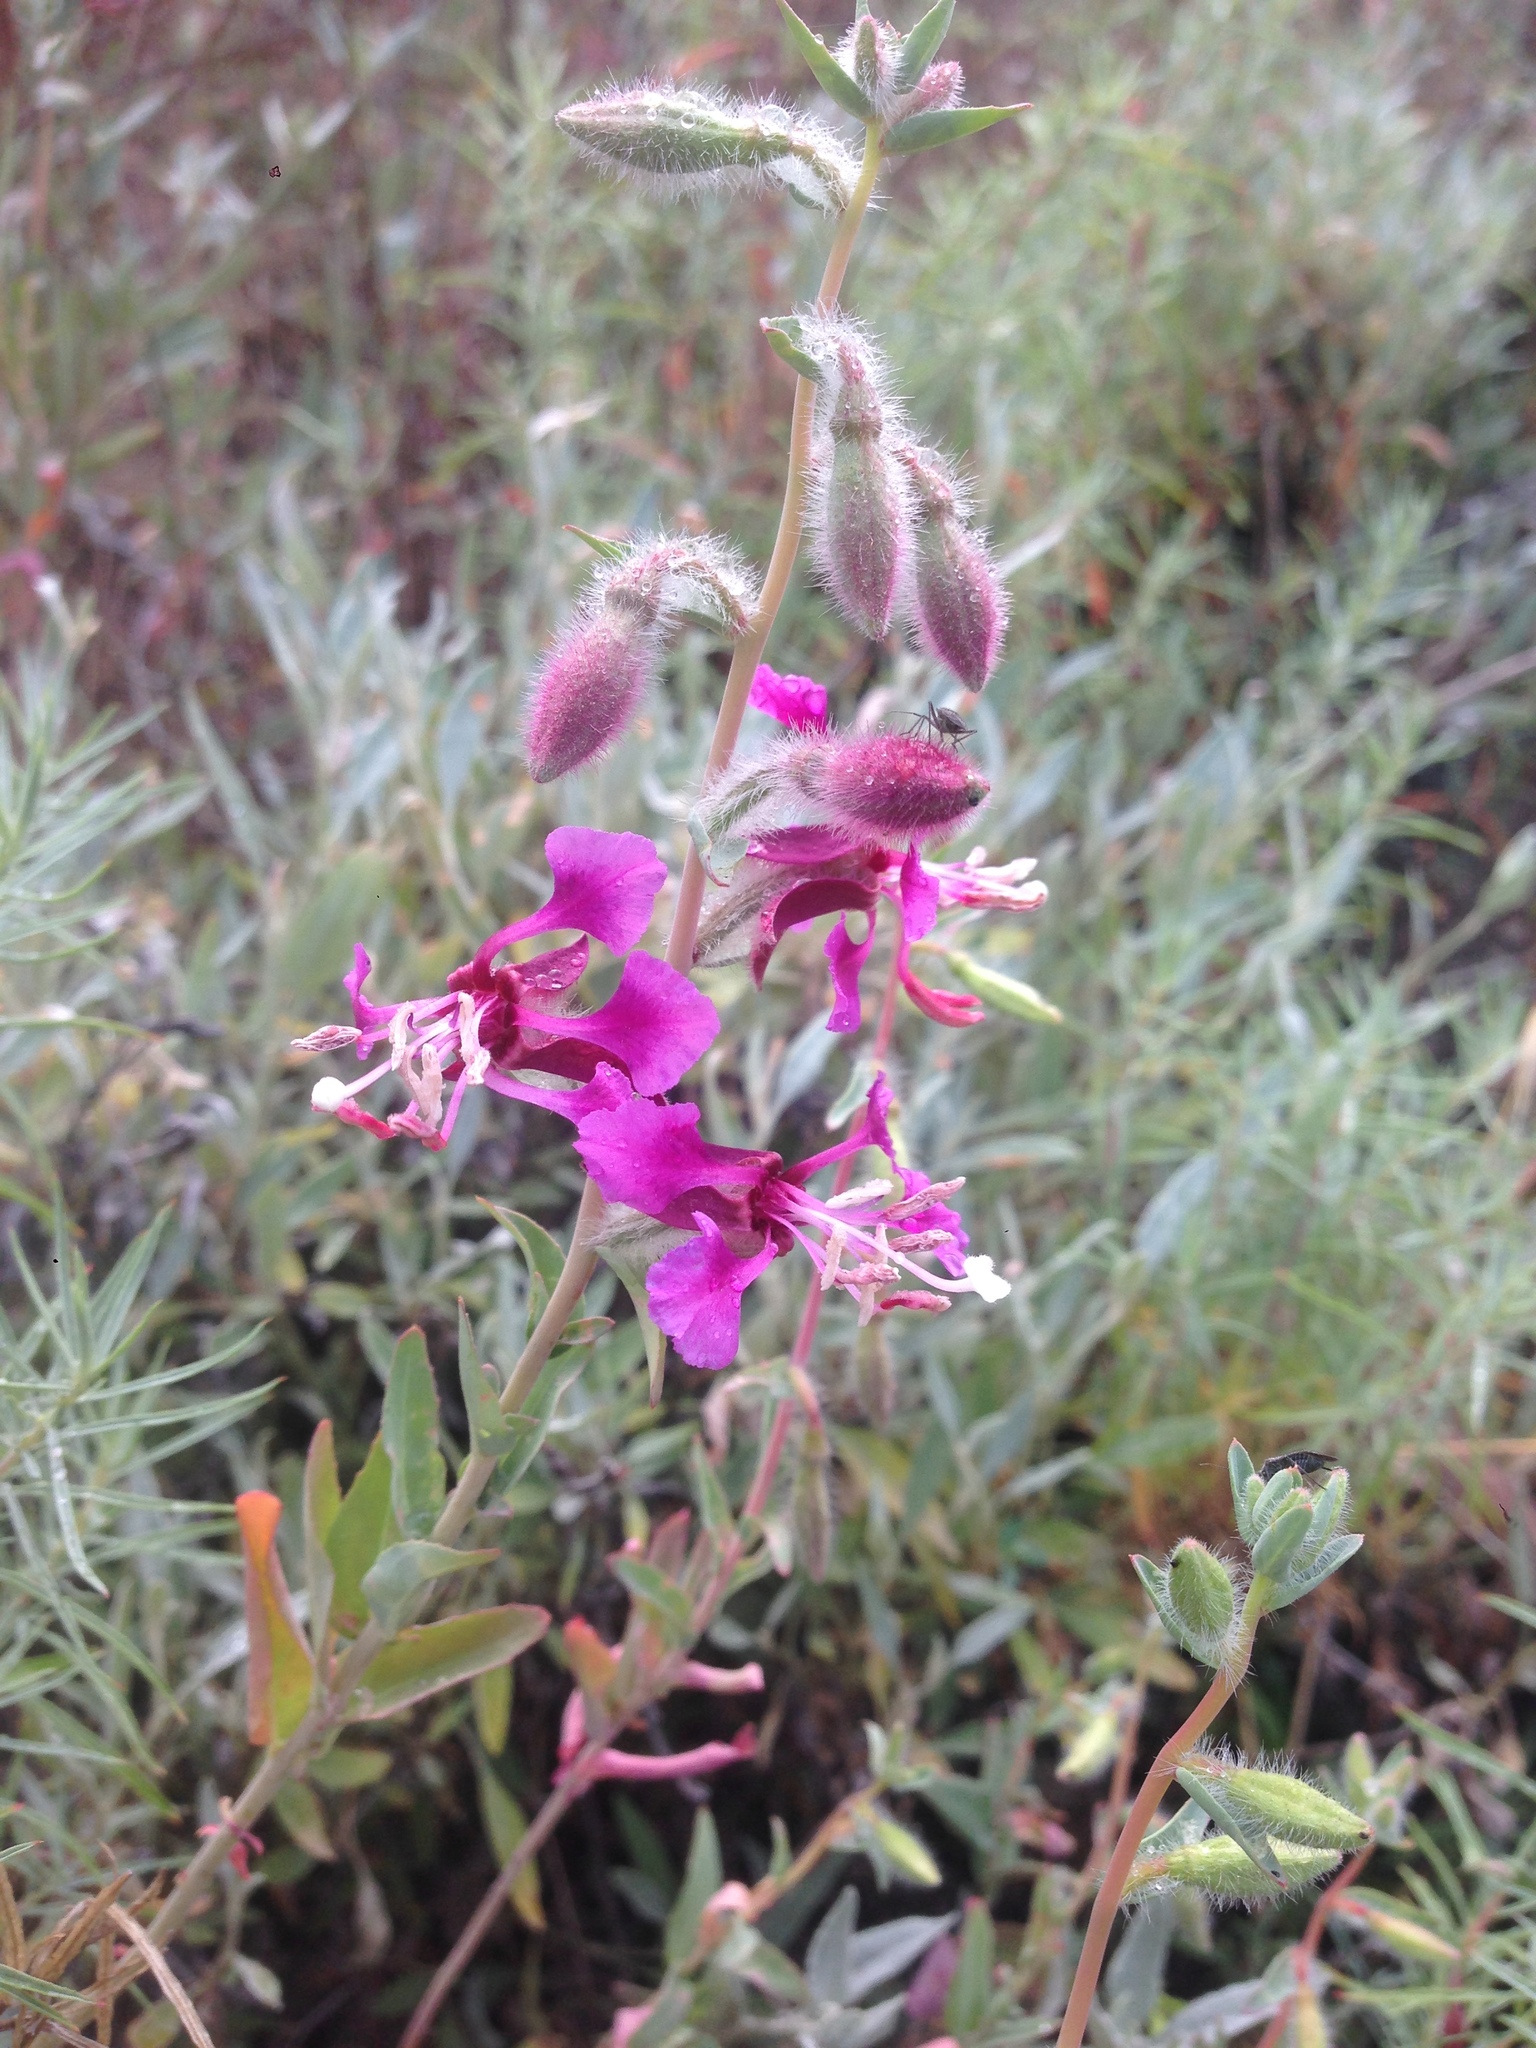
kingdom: Plantae
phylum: Tracheophyta
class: Magnoliopsida
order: Myrtales
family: Onagraceae
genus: Clarkia
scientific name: Clarkia unguiculata
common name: Clarkia
